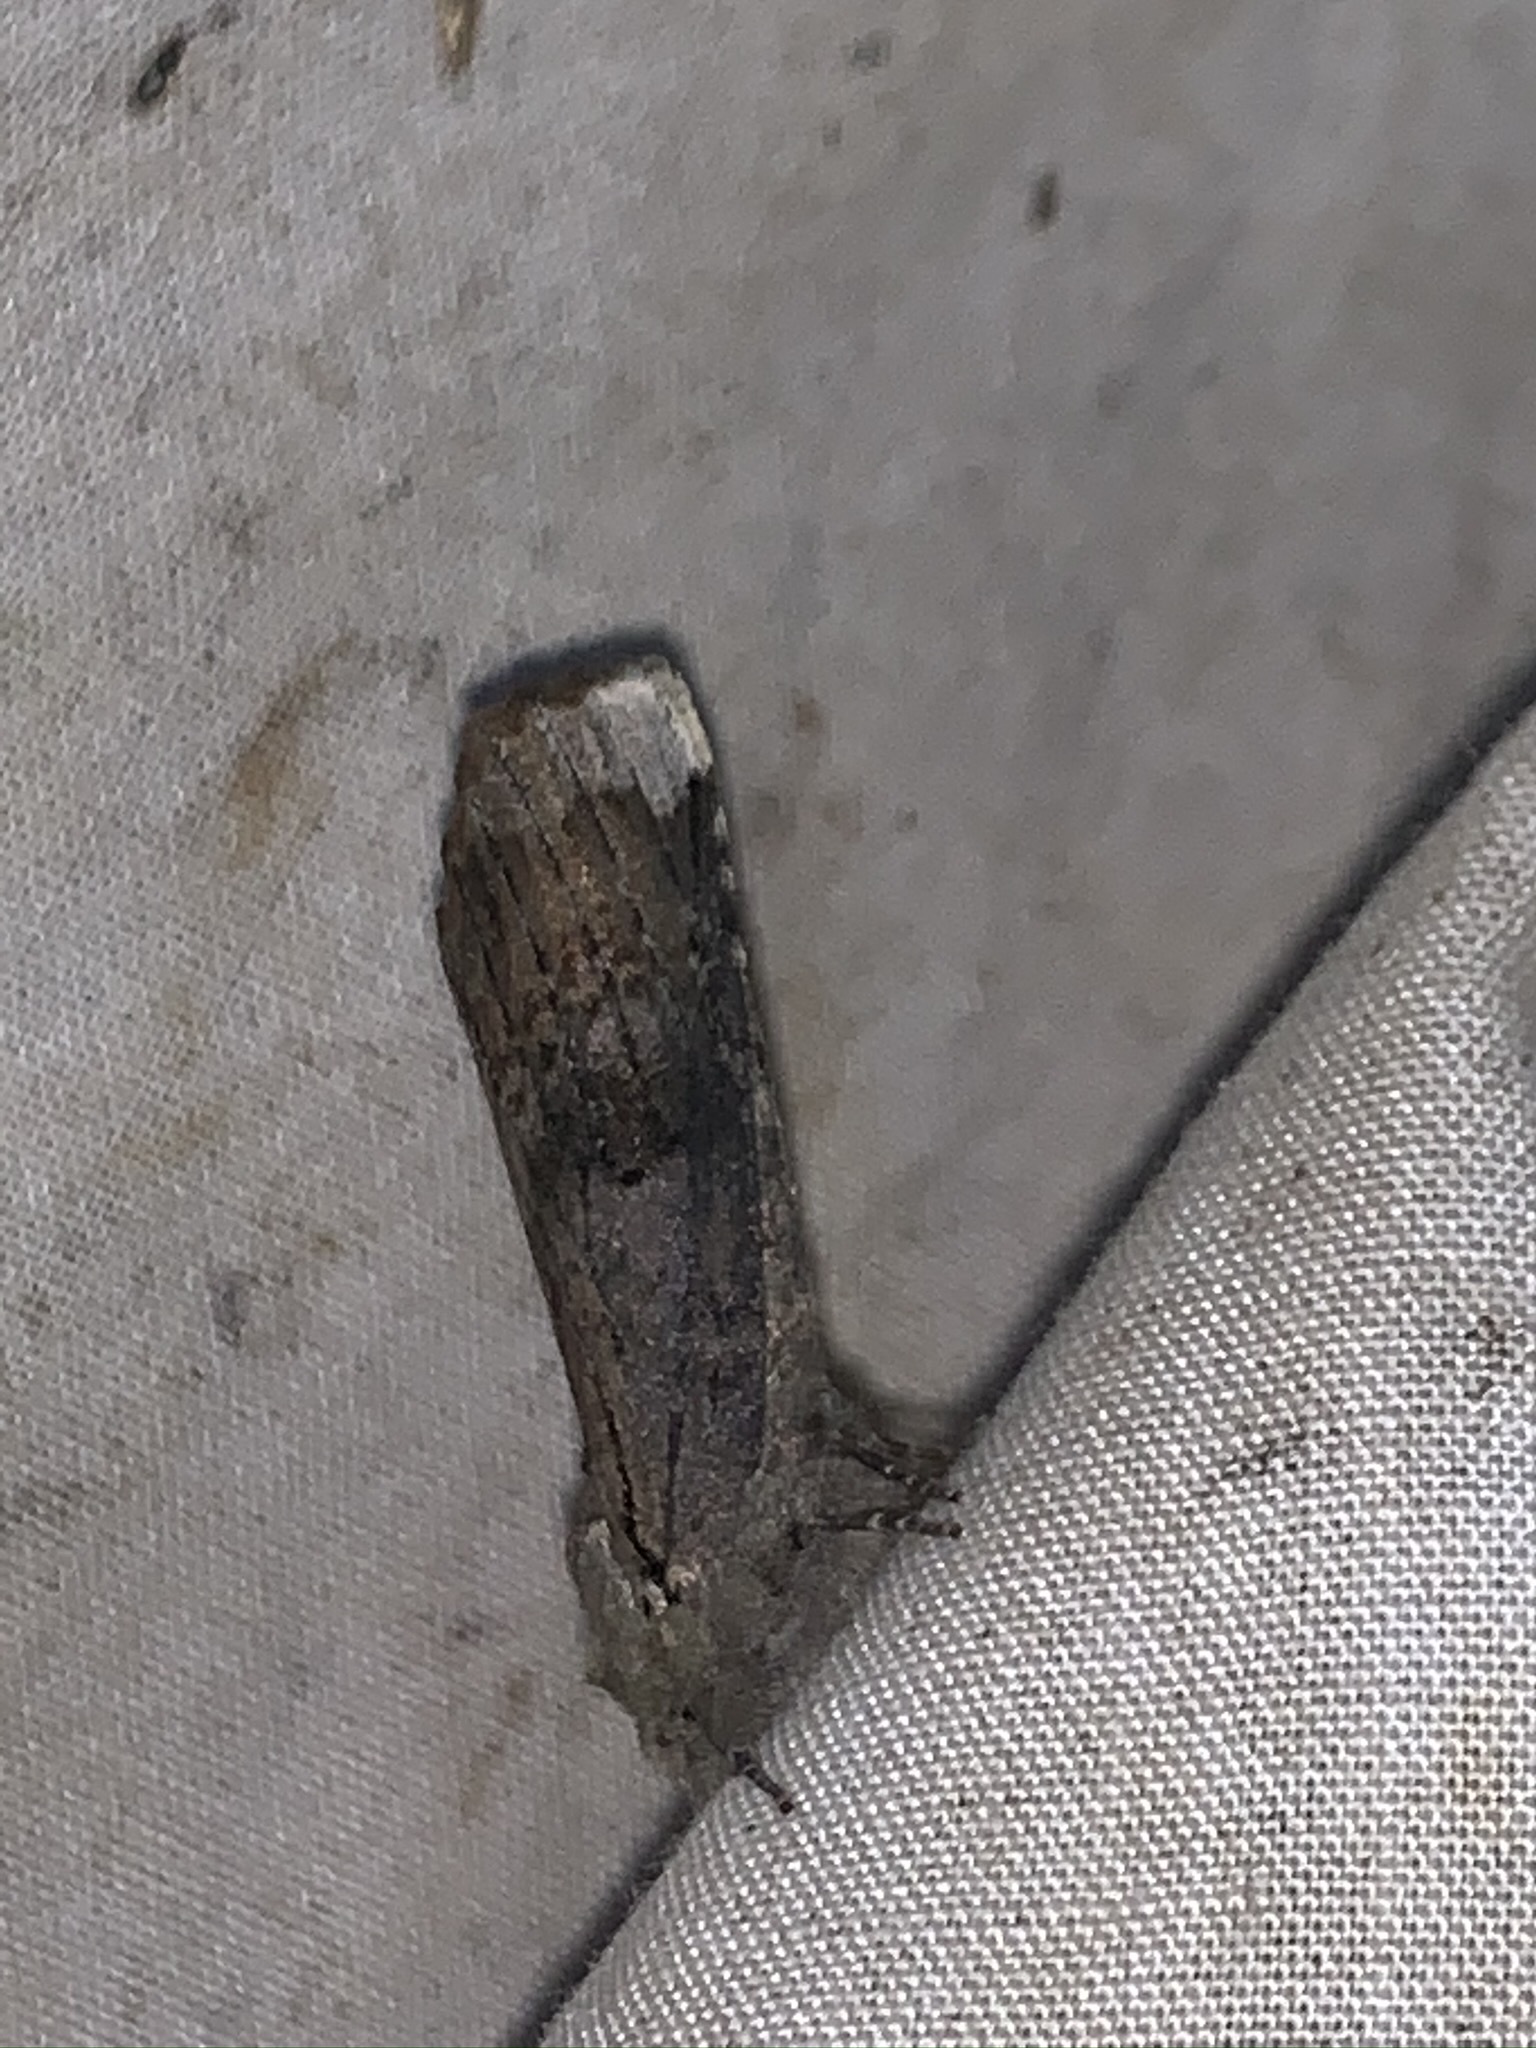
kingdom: Animalia
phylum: Arthropoda
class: Insecta
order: Lepidoptera
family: Notodontidae
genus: Schizura
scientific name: Schizura
